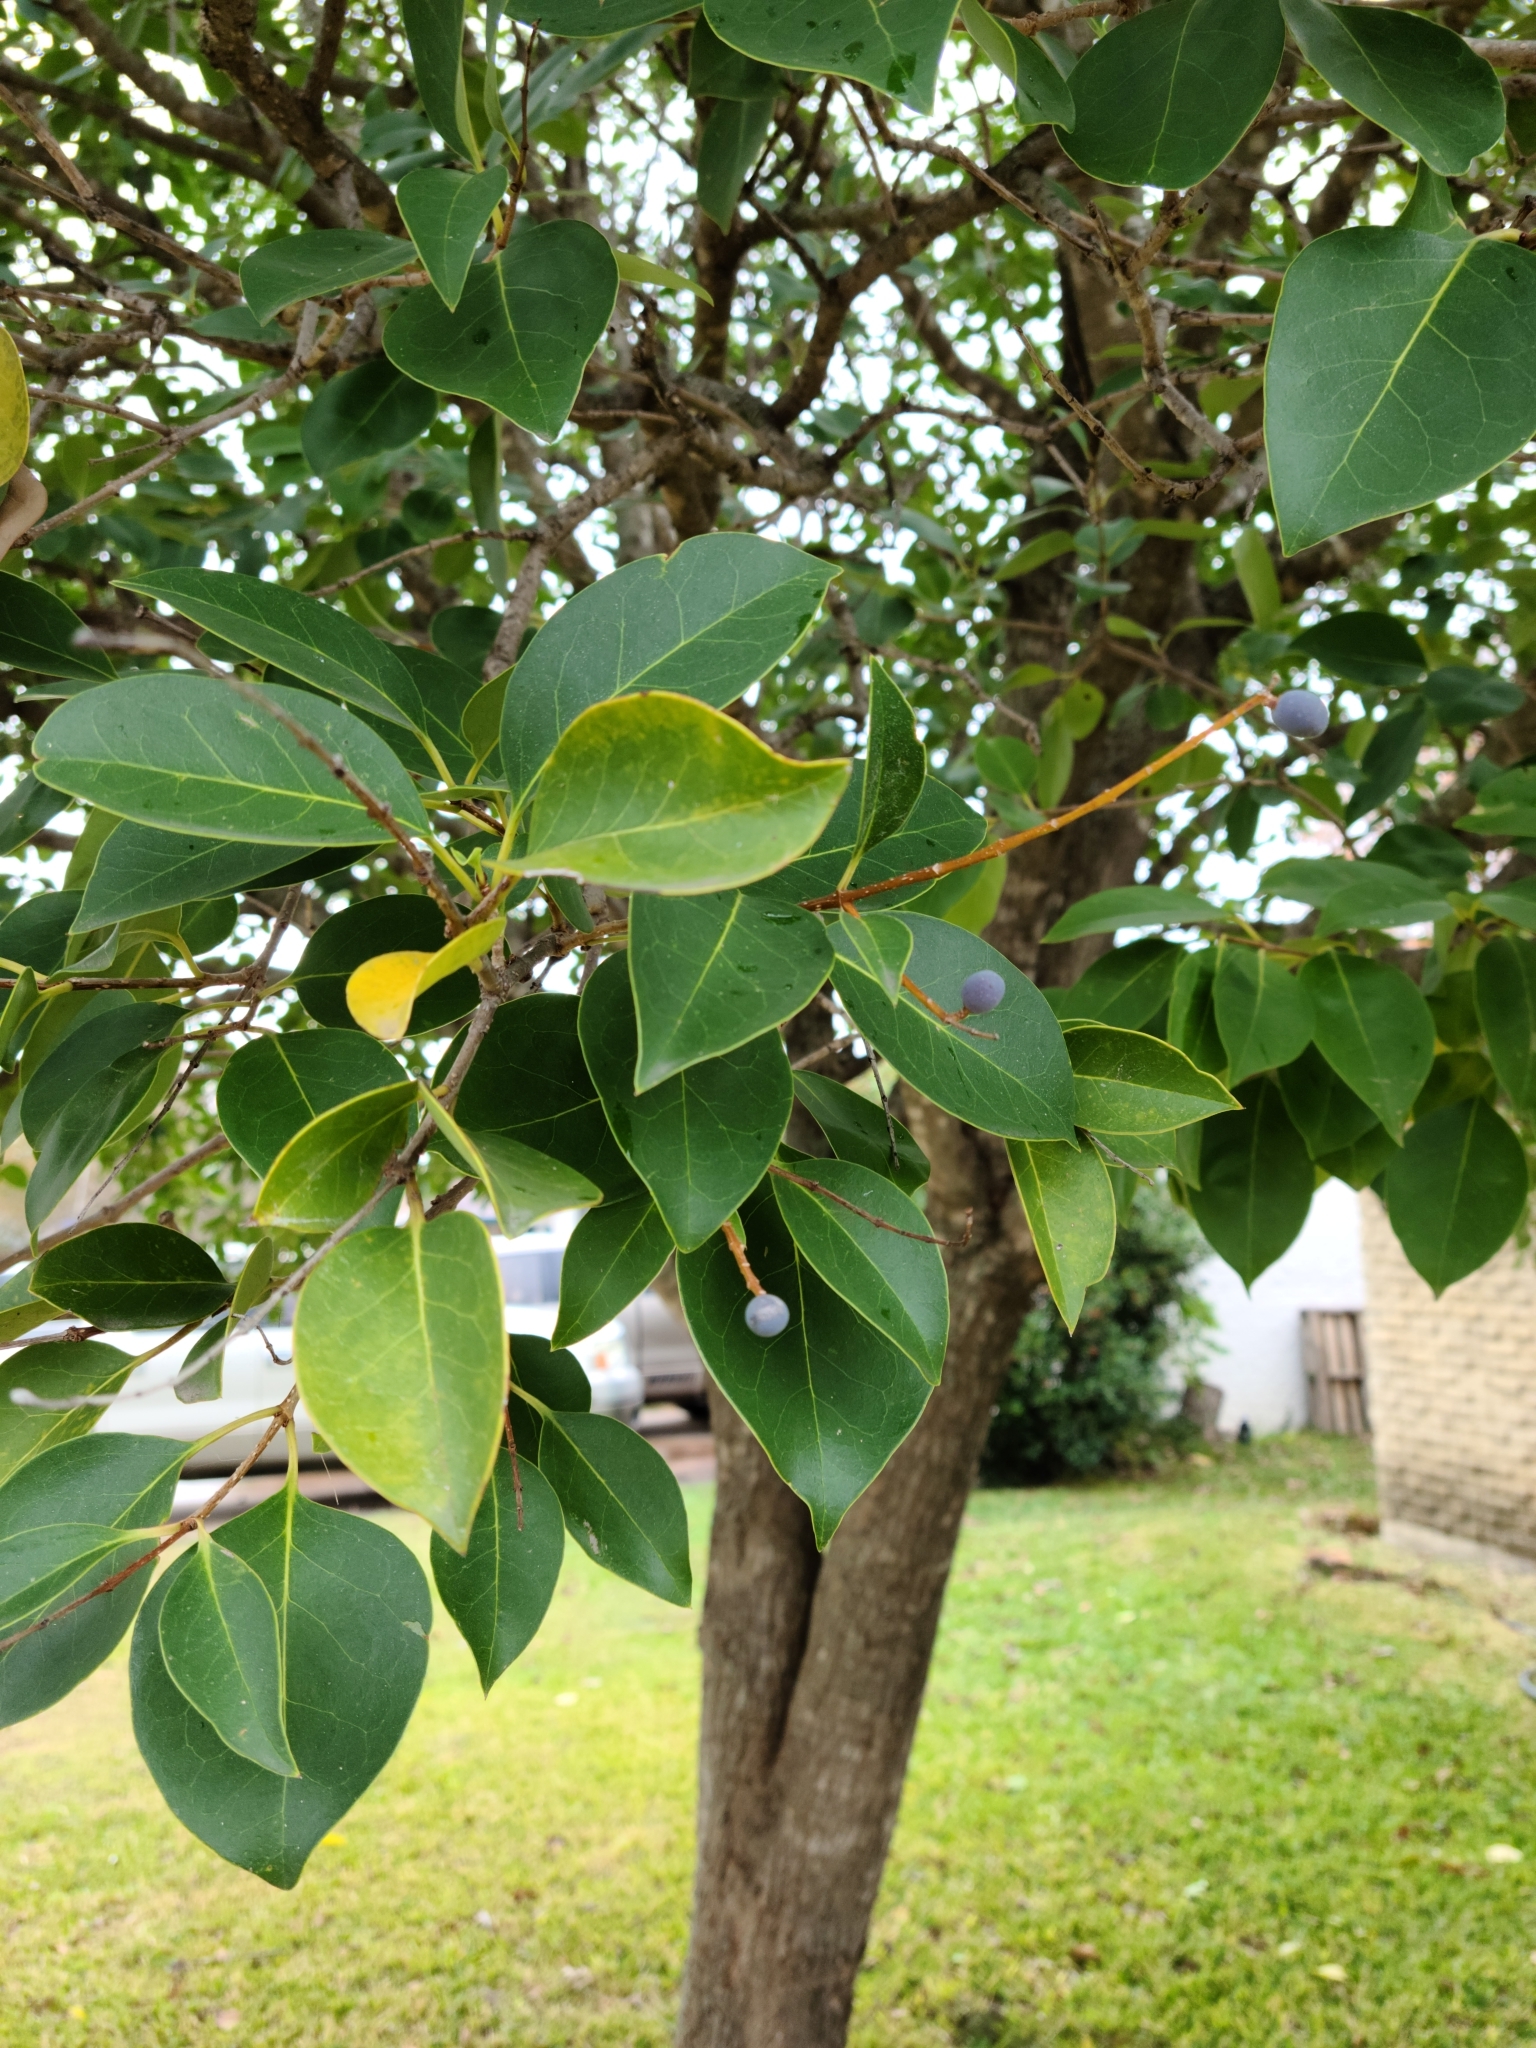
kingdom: Plantae
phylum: Tracheophyta
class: Magnoliopsida
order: Lamiales
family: Oleaceae
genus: Ligustrum
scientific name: Ligustrum lucidum
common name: Glossy privet
